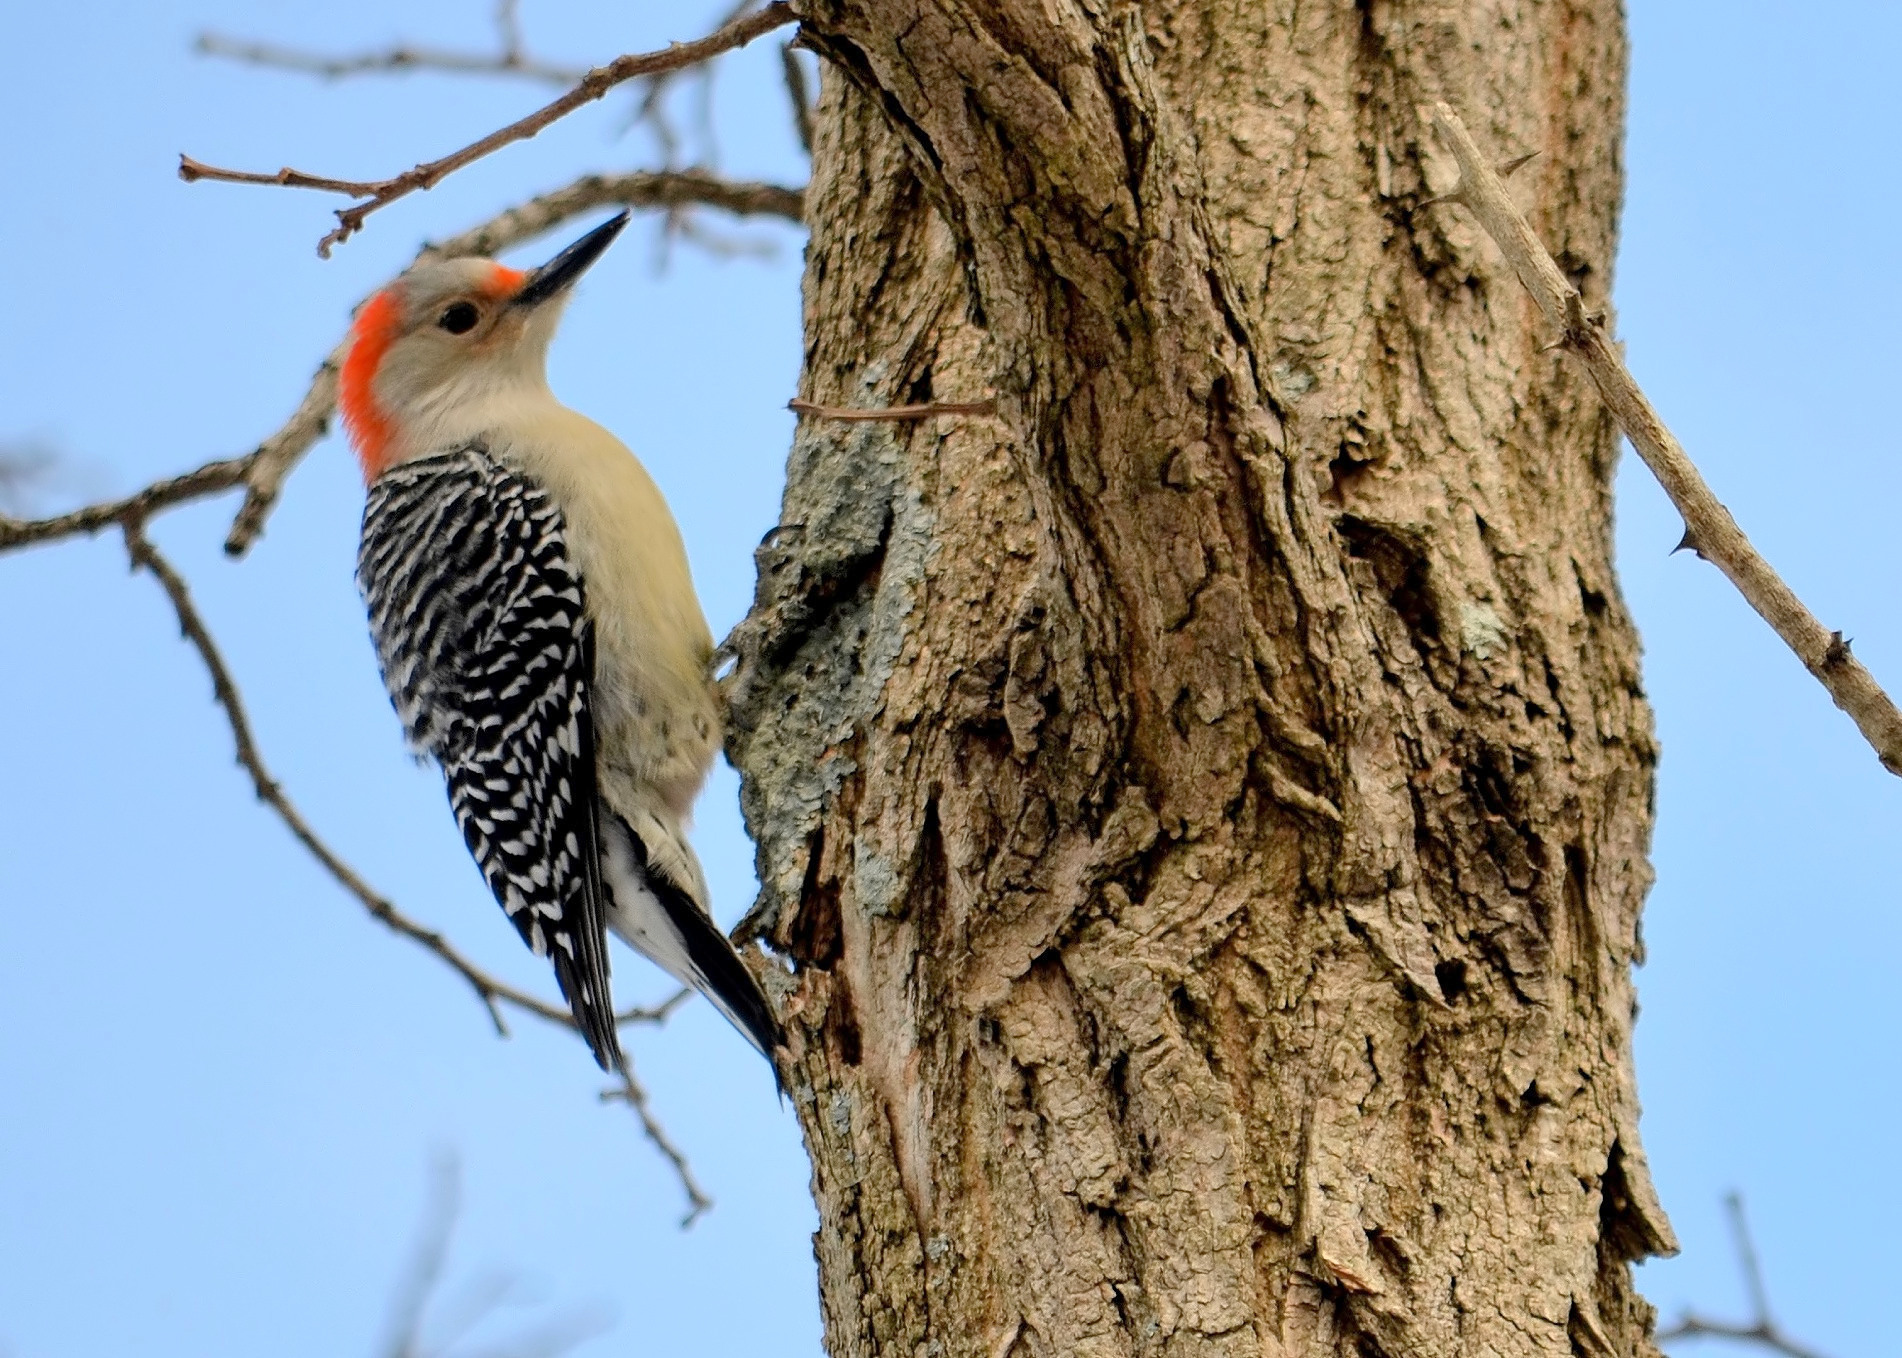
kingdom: Animalia
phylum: Chordata
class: Aves
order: Piciformes
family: Picidae
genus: Melanerpes
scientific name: Melanerpes carolinus
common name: Red-bellied woodpecker
